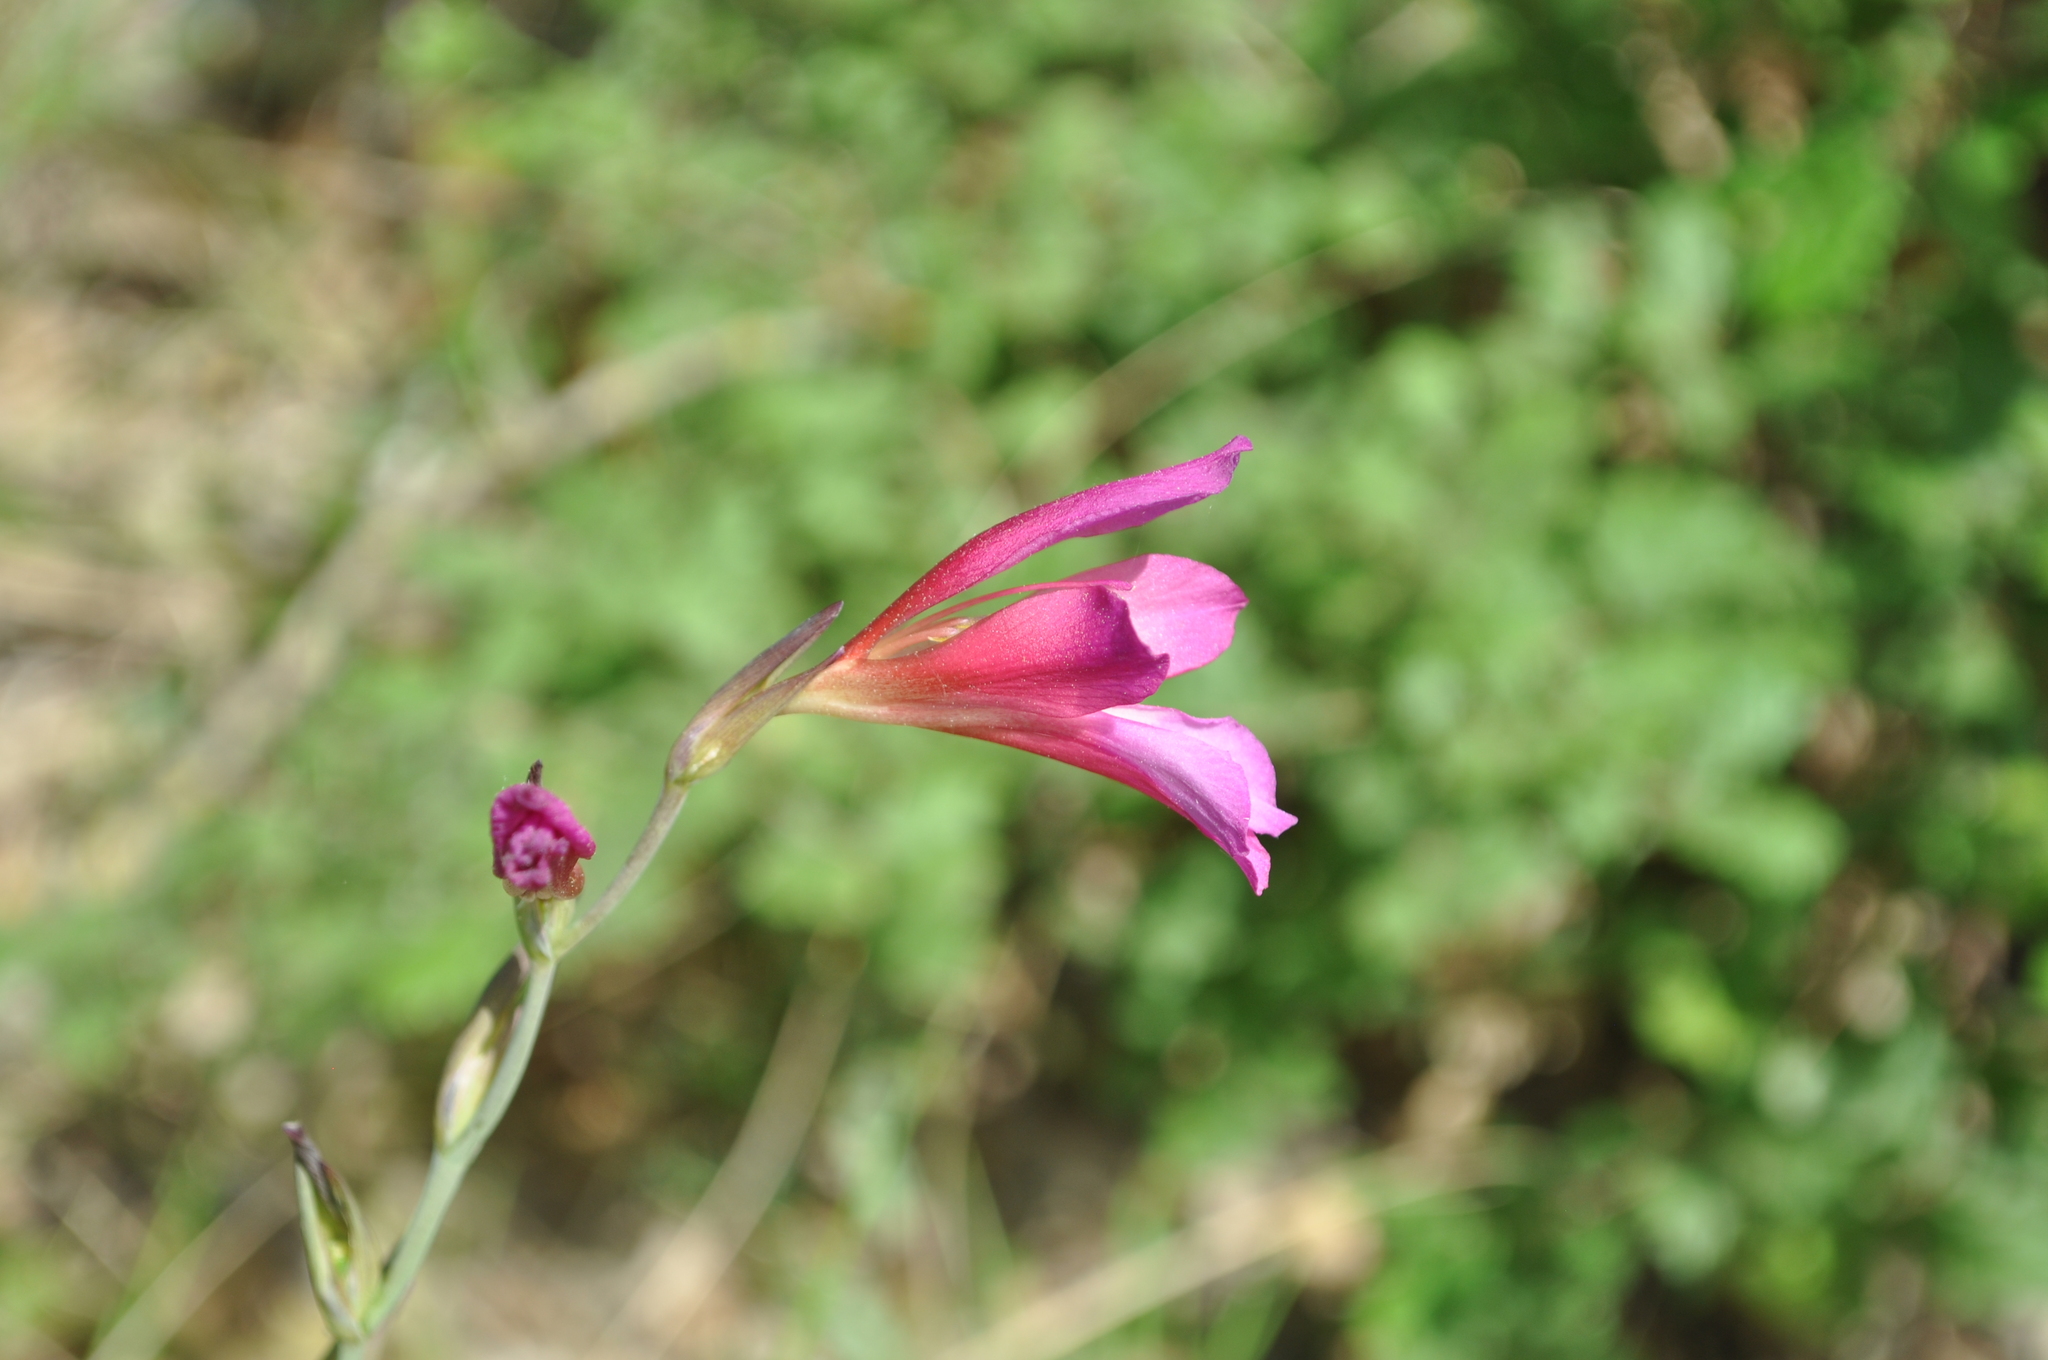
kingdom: Plantae
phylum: Tracheophyta
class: Liliopsida
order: Asparagales
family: Iridaceae
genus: Gladiolus
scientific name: Gladiolus italicus
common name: Field gladiolus
